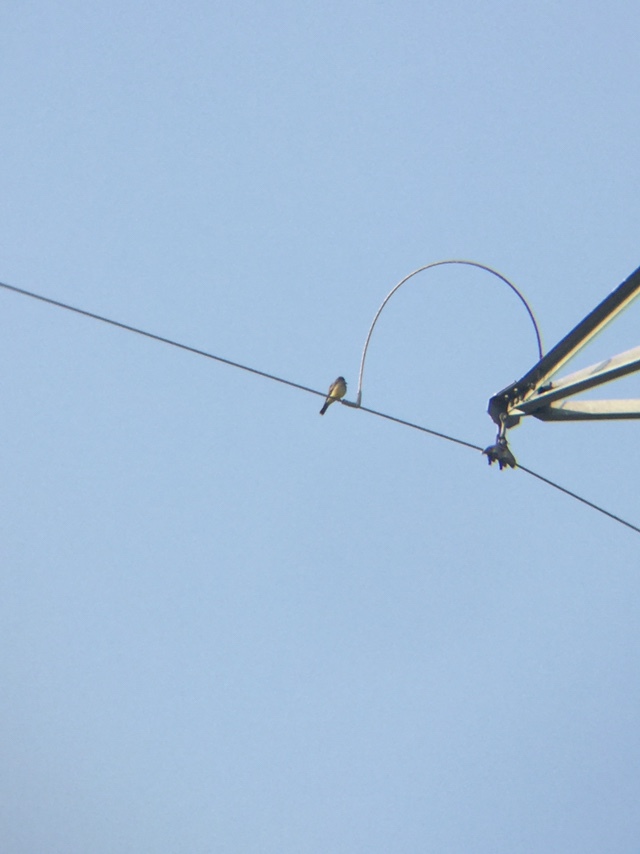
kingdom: Animalia
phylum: Chordata
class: Aves
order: Passeriformes
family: Tyrannidae
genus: Tyrannus
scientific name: Tyrannus vociferans
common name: Cassin's kingbird
